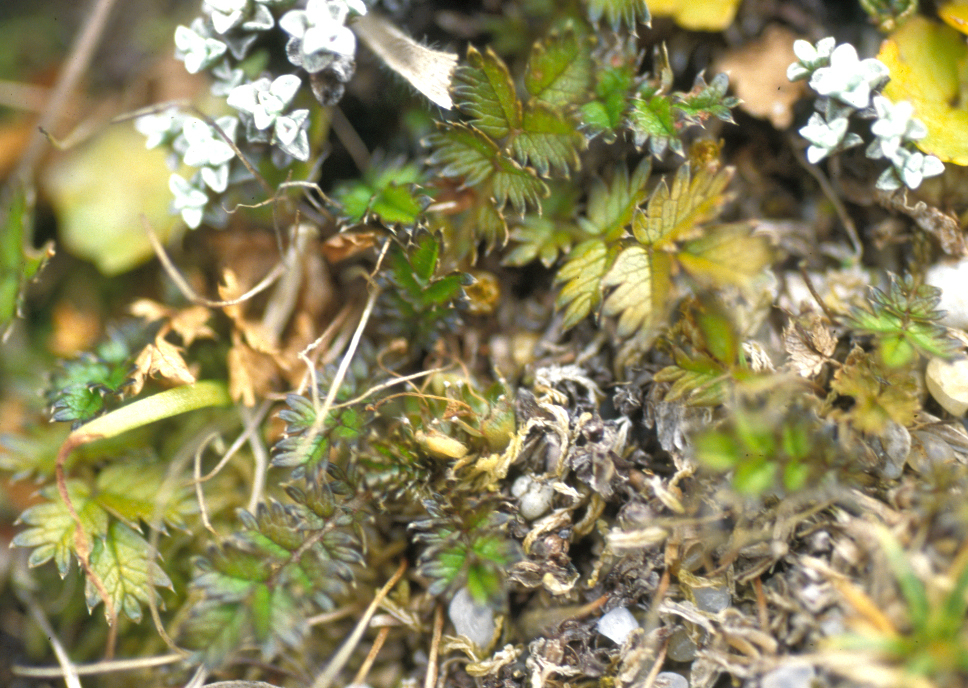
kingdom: Plantae
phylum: Tracheophyta
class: Magnoliopsida
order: Rosales
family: Rosaceae
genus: Acaena
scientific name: Acaena microphylla
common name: New zealand-bur
